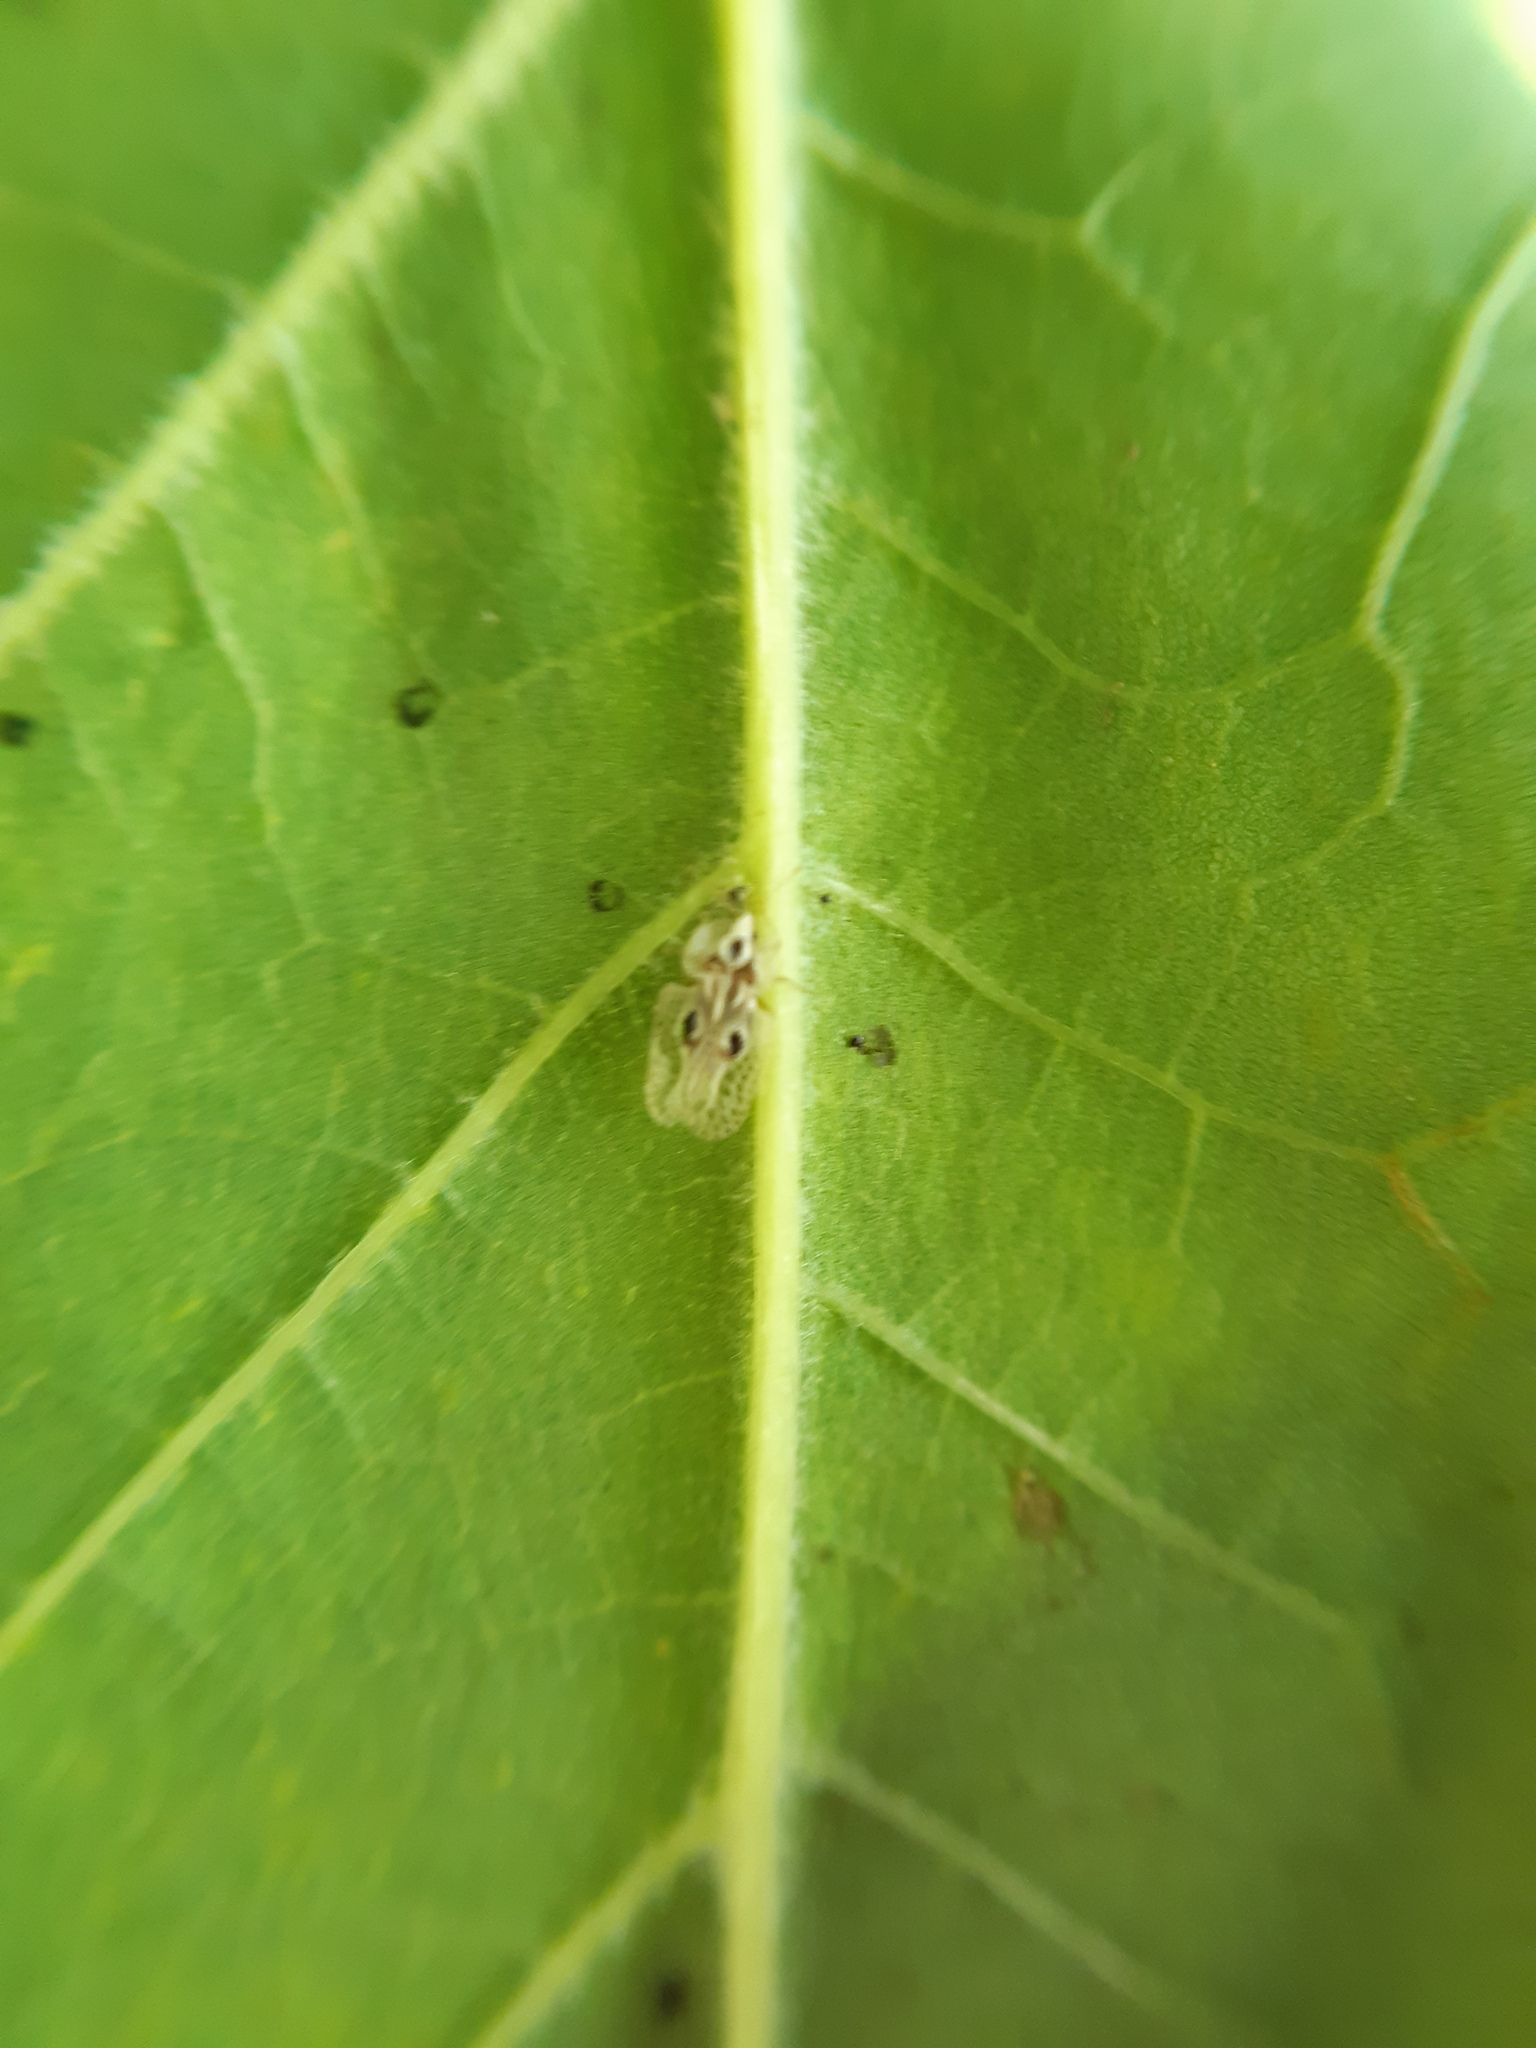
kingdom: Animalia
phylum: Arthropoda
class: Insecta
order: Hemiptera
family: Tingidae
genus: Corythucha
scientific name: Corythucha ciliata
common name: Sycamore lace bug
